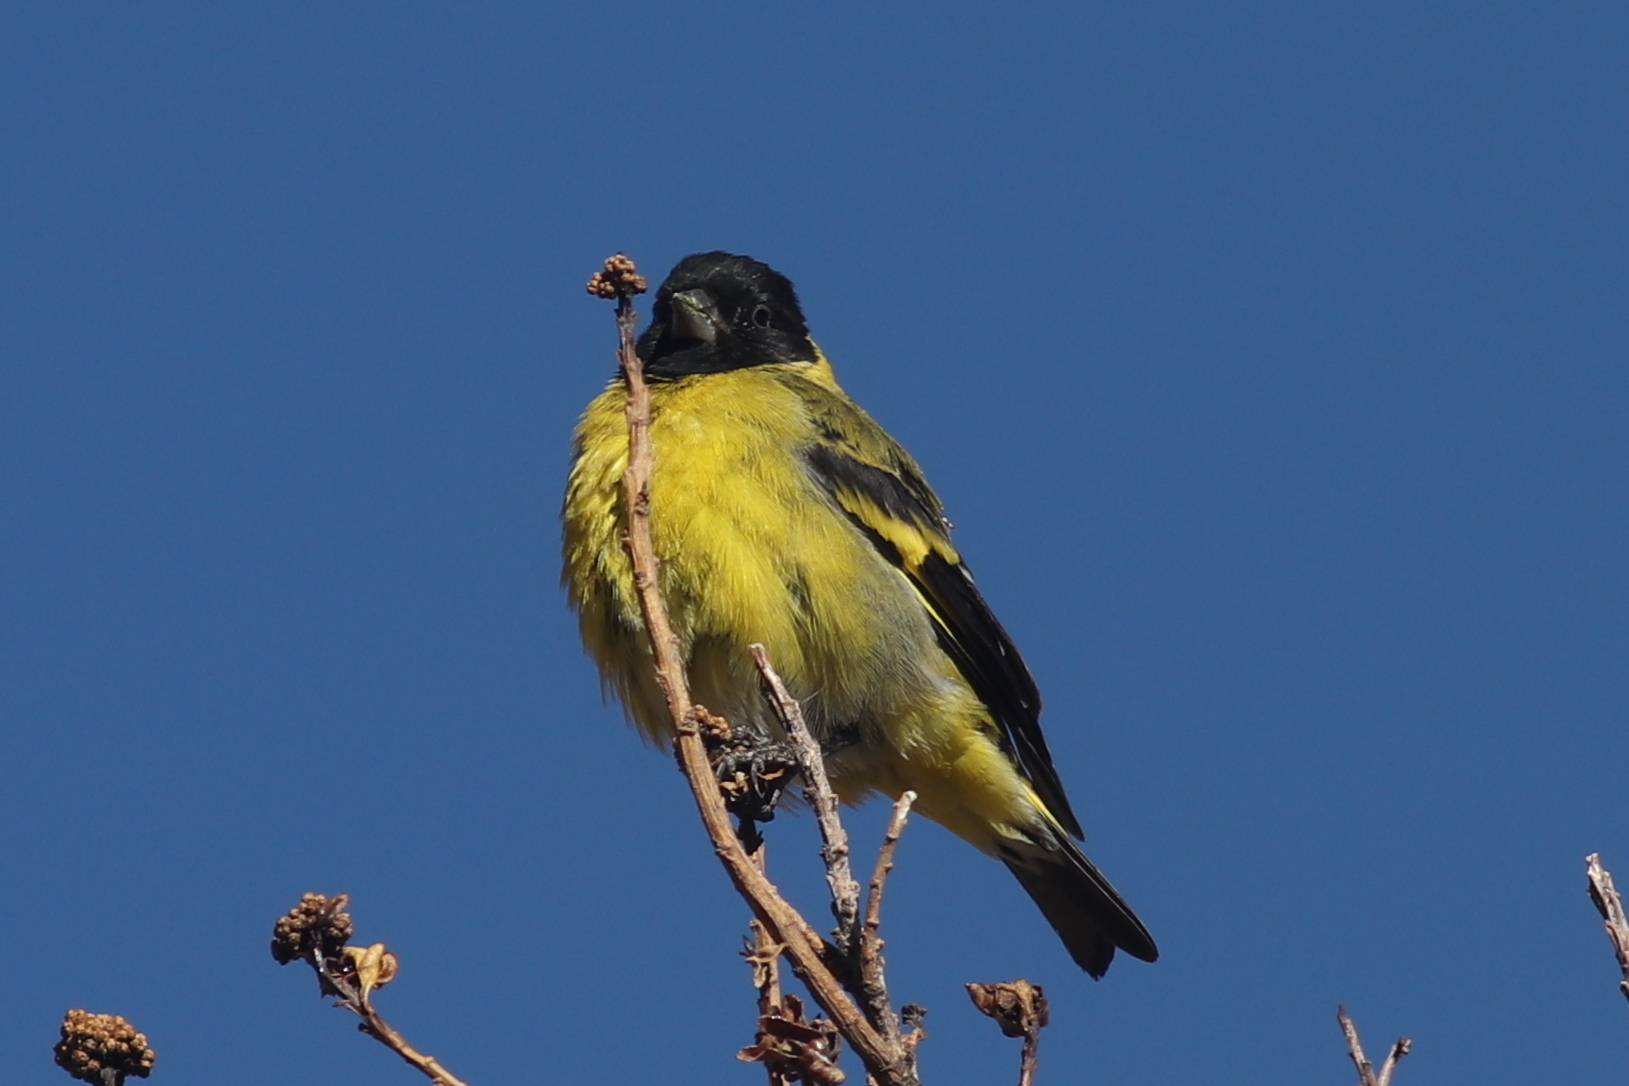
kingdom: Animalia
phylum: Chordata
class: Aves
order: Passeriformes
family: Fringillidae
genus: Spinus
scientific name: Spinus magellanicus
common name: Hooded siskin
